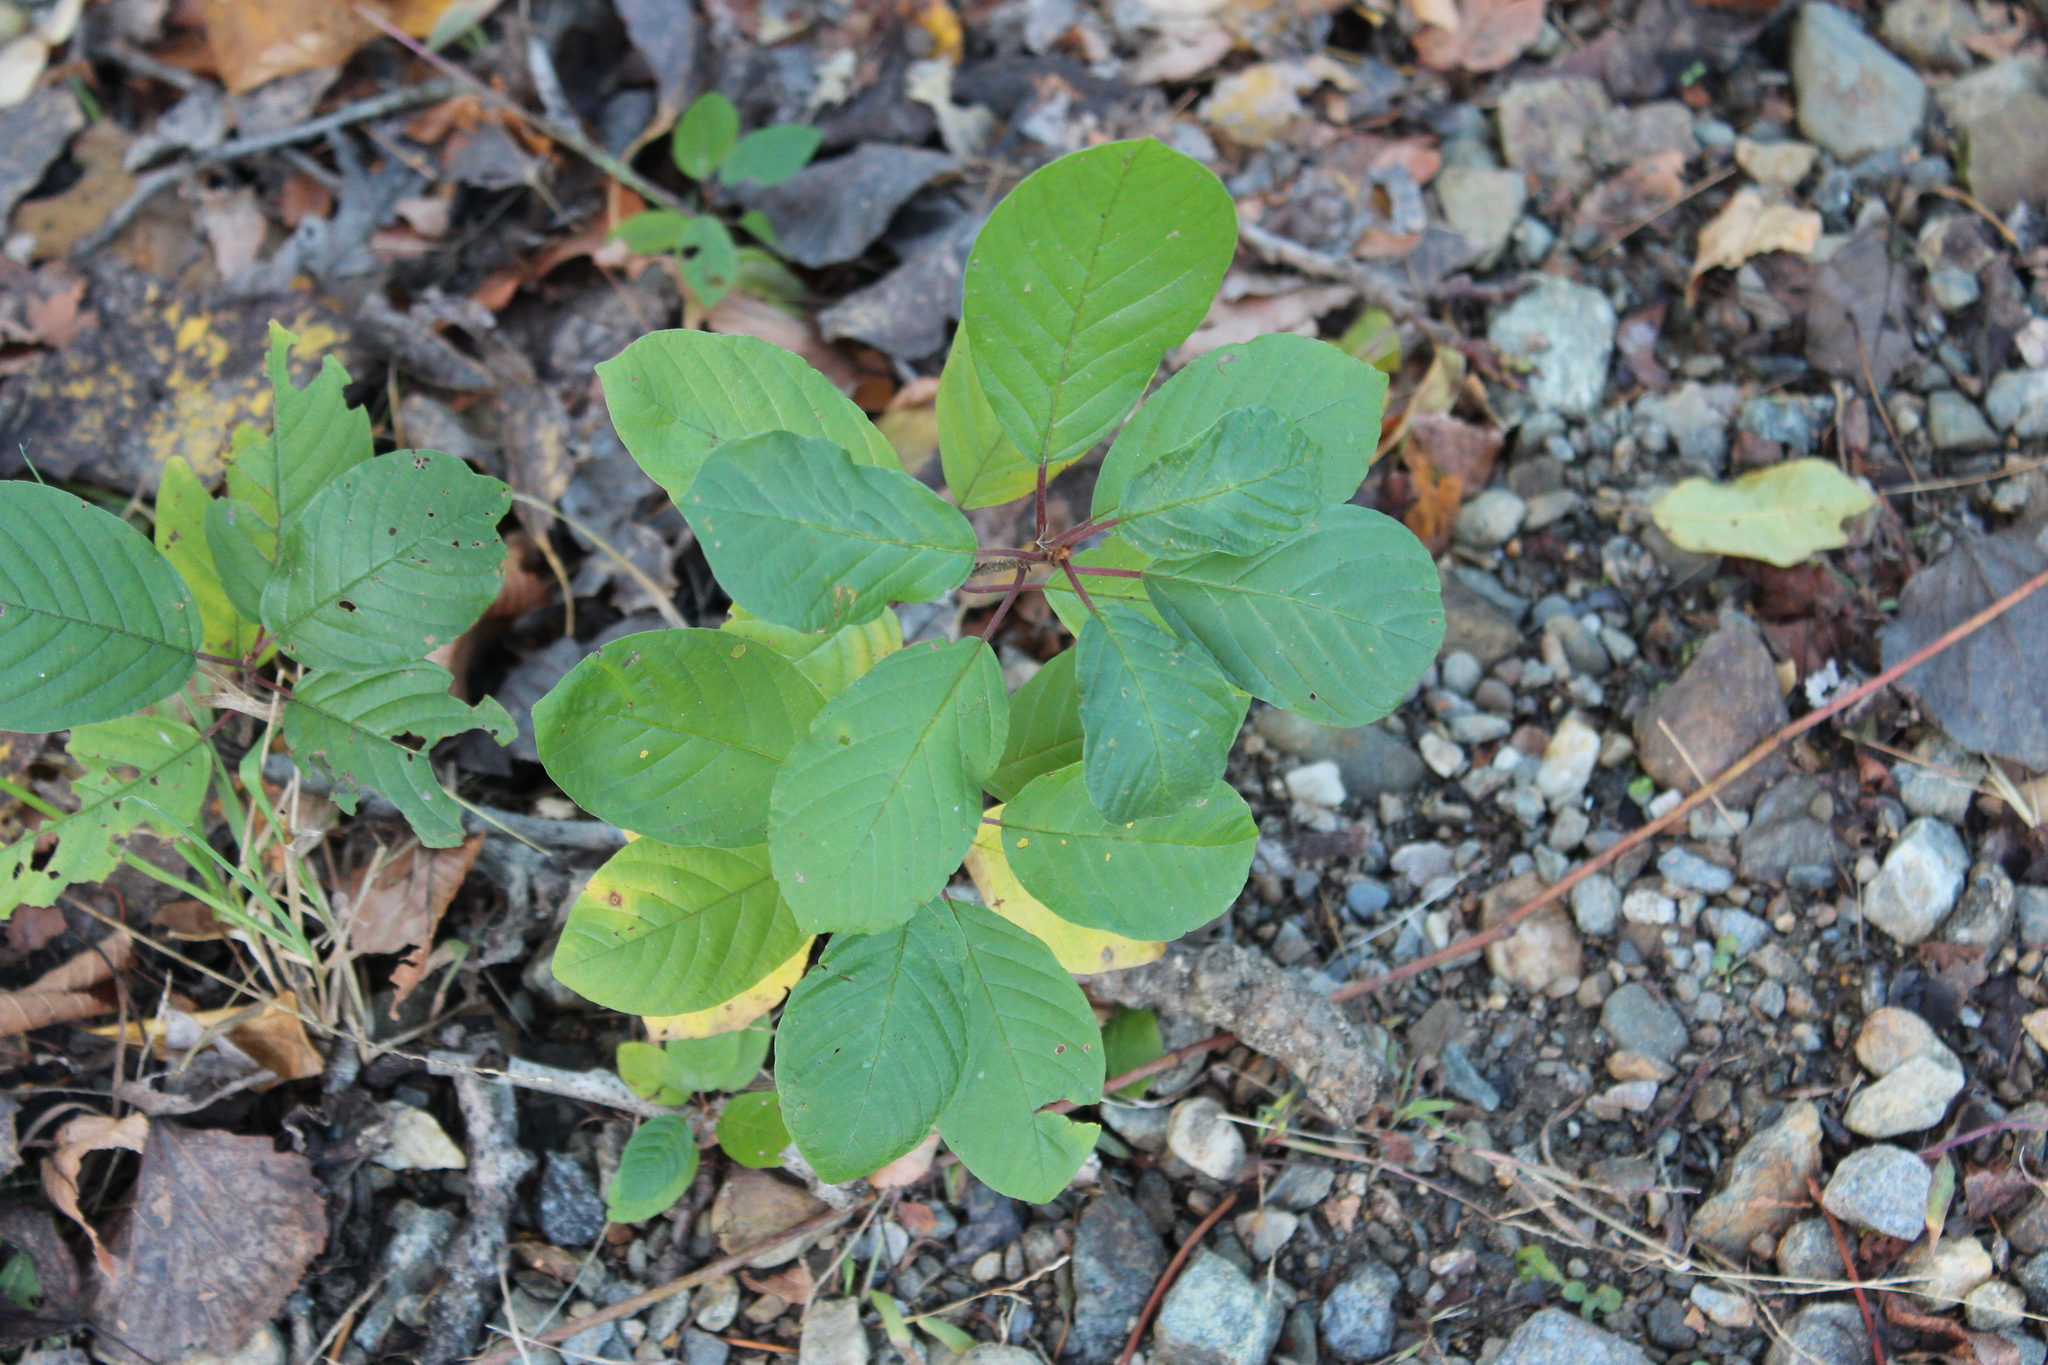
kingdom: Plantae
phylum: Tracheophyta
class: Magnoliopsida
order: Rosales
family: Rhamnaceae
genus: Frangula
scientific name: Frangula alnus
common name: Alder buckthorn
